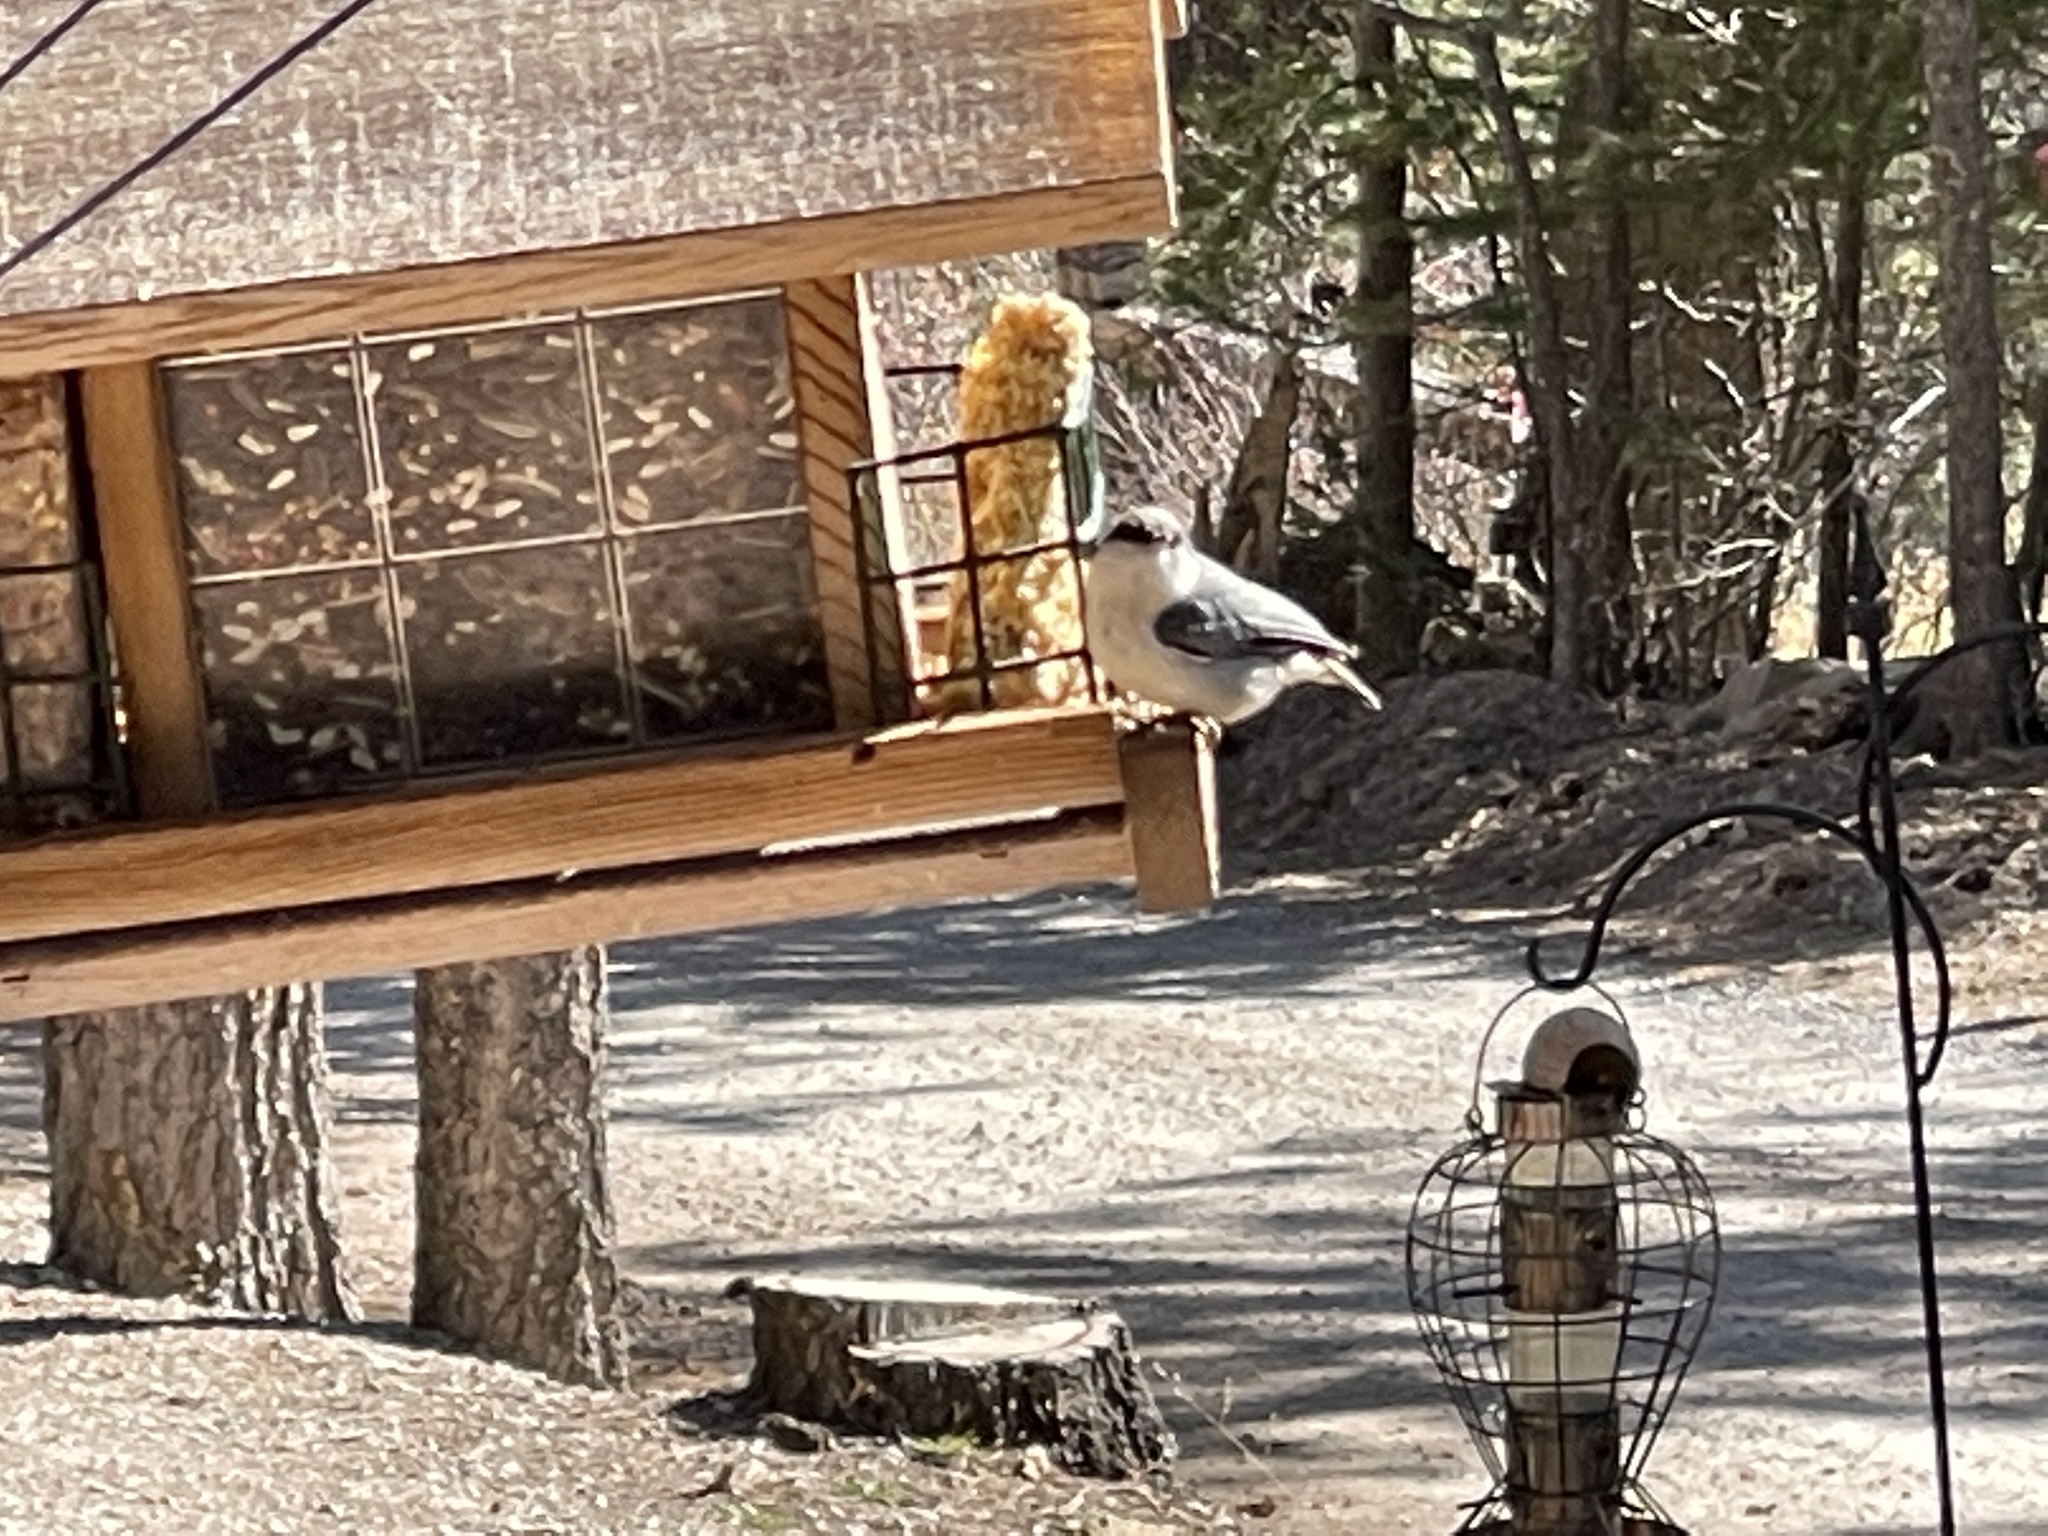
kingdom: Animalia
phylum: Chordata
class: Aves
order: Passeriformes
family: Sittidae
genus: Sitta
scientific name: Sitta pygmaea
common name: Pygmy nuthatch
